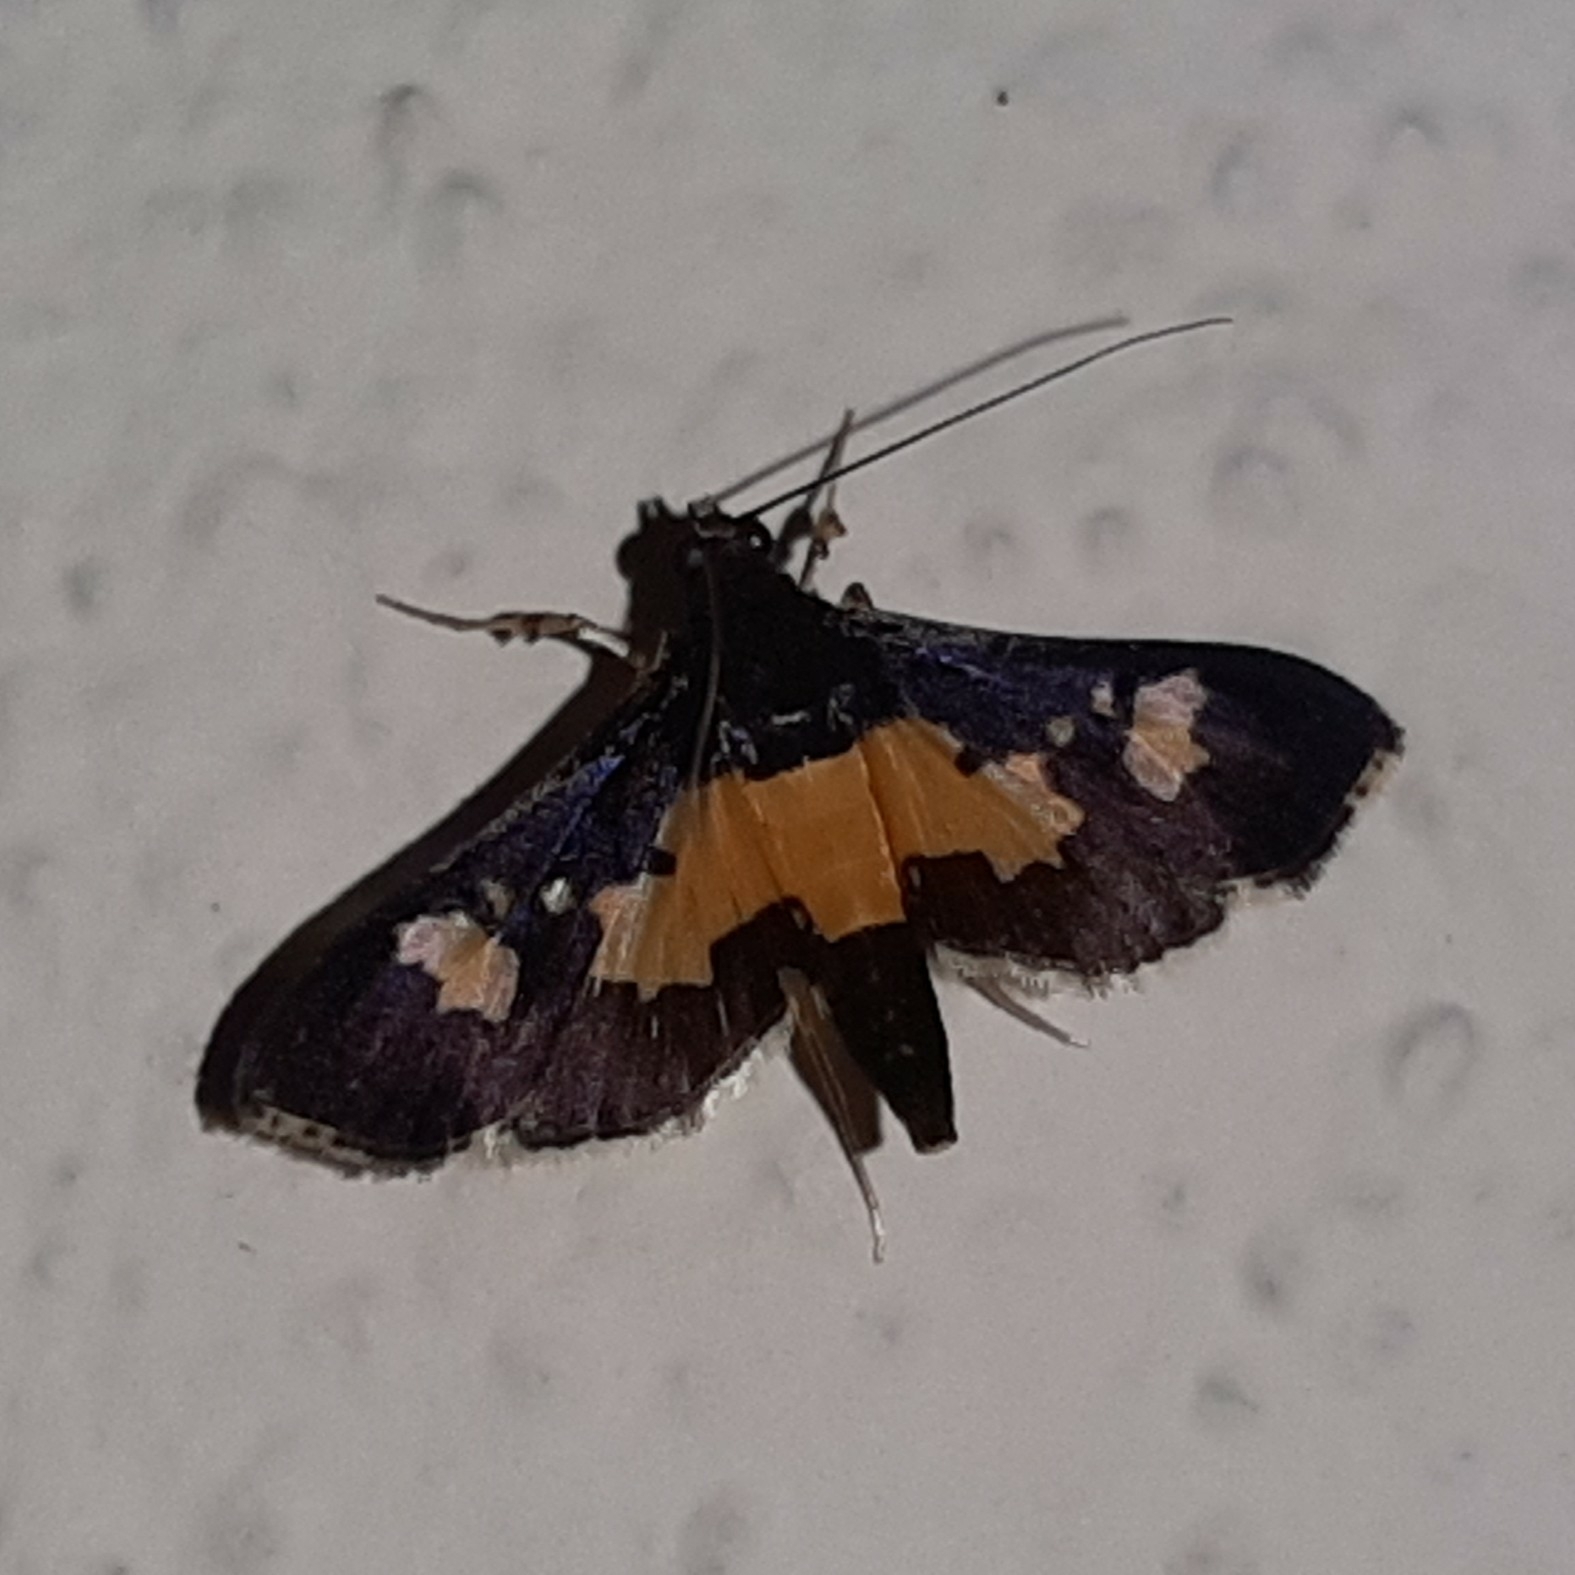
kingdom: Animalia
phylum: Arthropoda
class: Insecta
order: Lepidoptera
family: Crambidae
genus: Salbia
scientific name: Salbia zena
